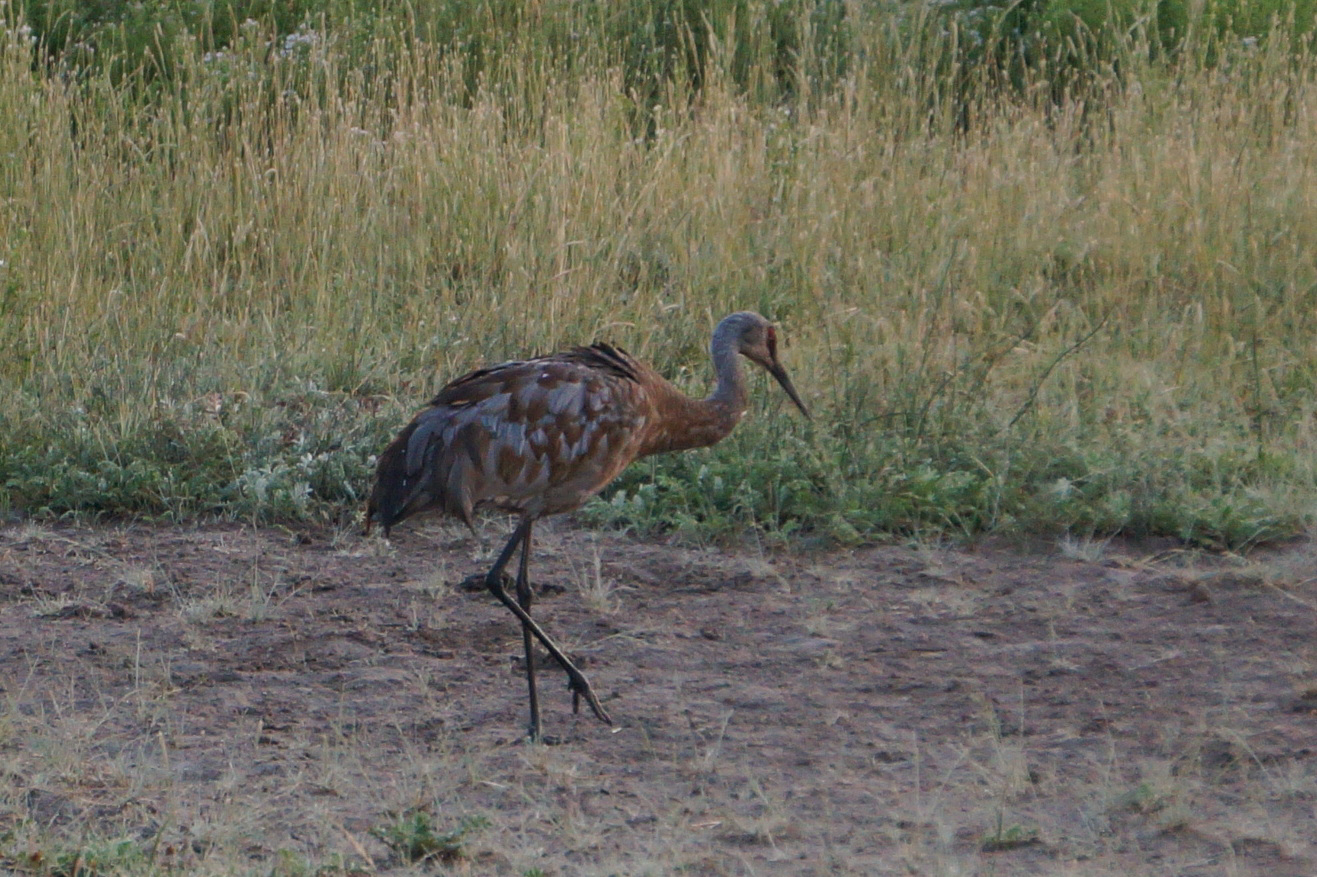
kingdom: Animalia
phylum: Chordata
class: Aves
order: Gruiformes
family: Gruidae
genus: Grus
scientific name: Grus canadensis
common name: Sandhill crane
